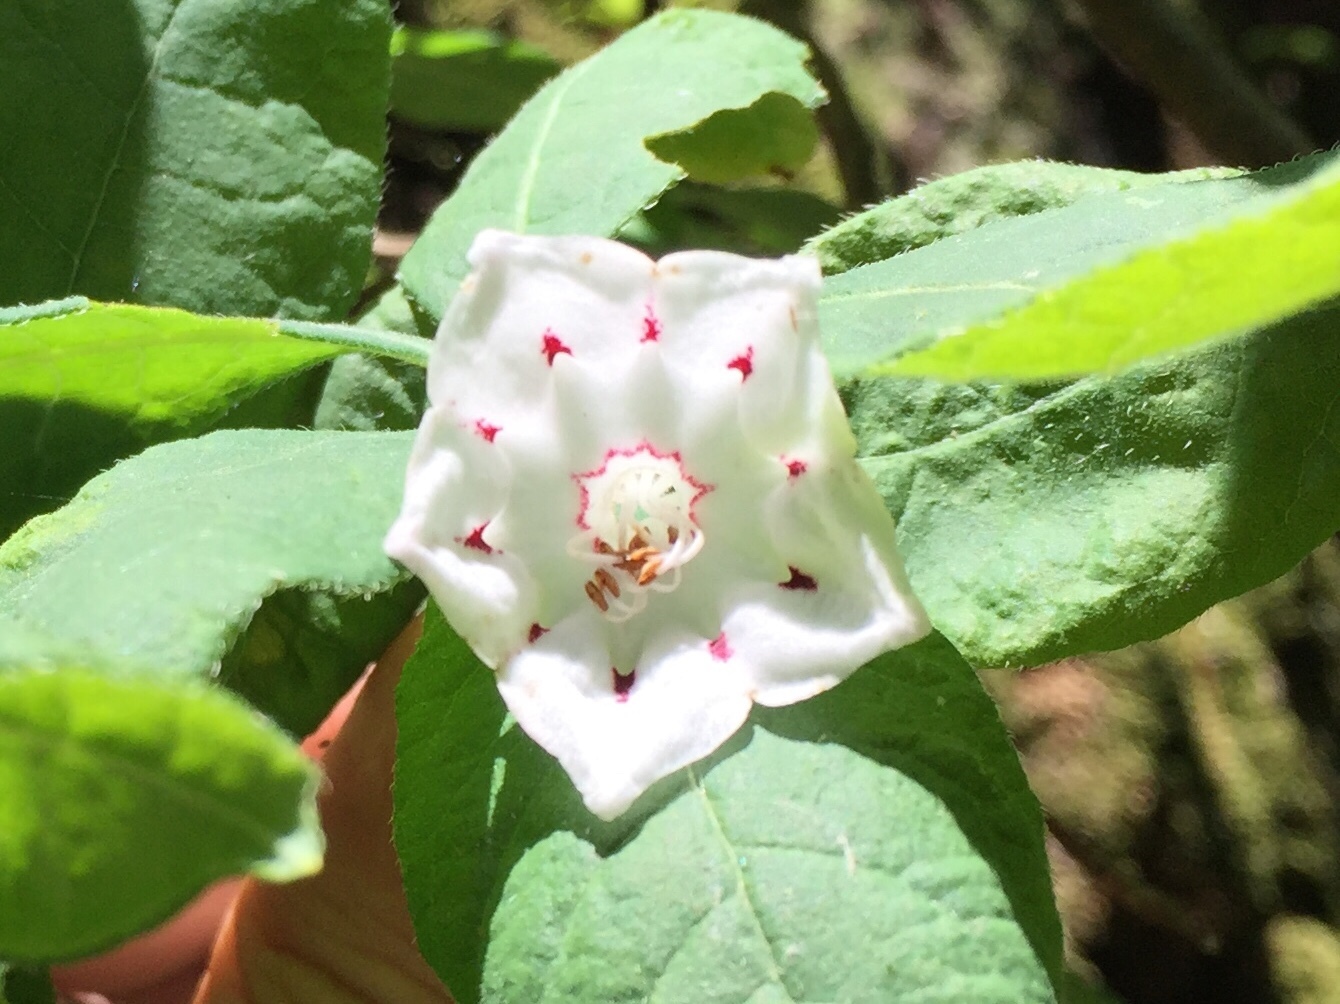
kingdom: Plantae
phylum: Tracheophyta
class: Magnoliopsida
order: Ericales
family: Ericaceae
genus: Kalmia
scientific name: Kalmia latifolia
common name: Mountain-laurel
